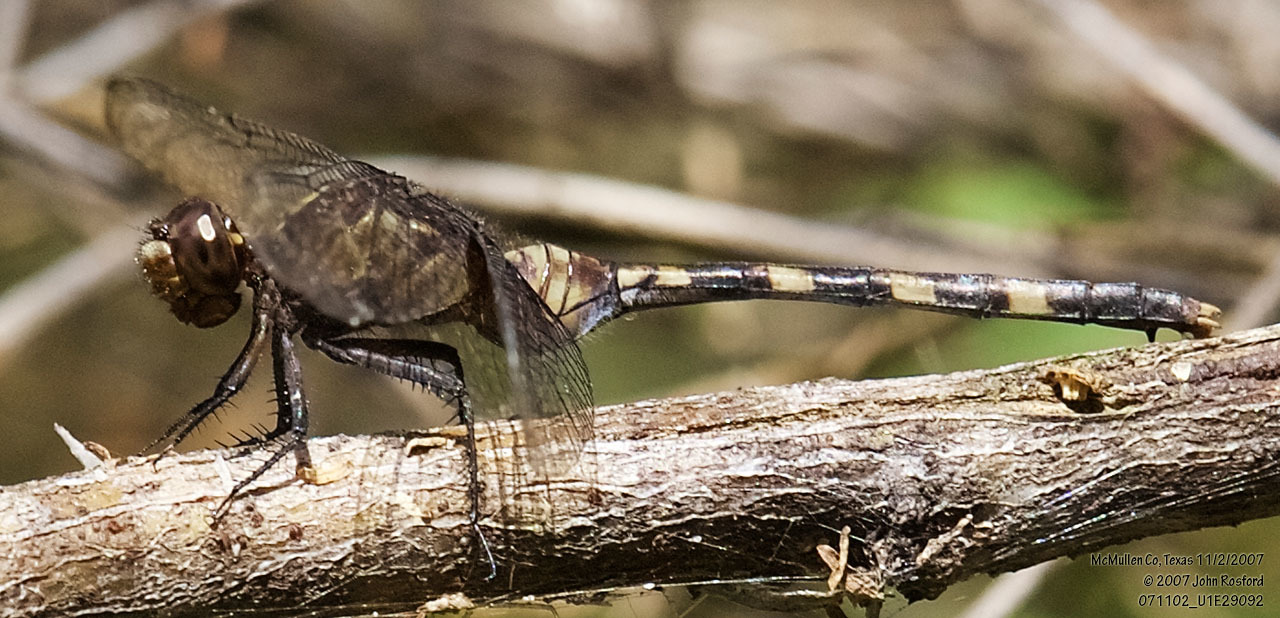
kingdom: Animalia
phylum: Arthropoda
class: Insecta
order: Odonata
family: Libellulidae
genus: Erythemis
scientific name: Erythemis plebeja
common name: Pin-tailed pondhawk
